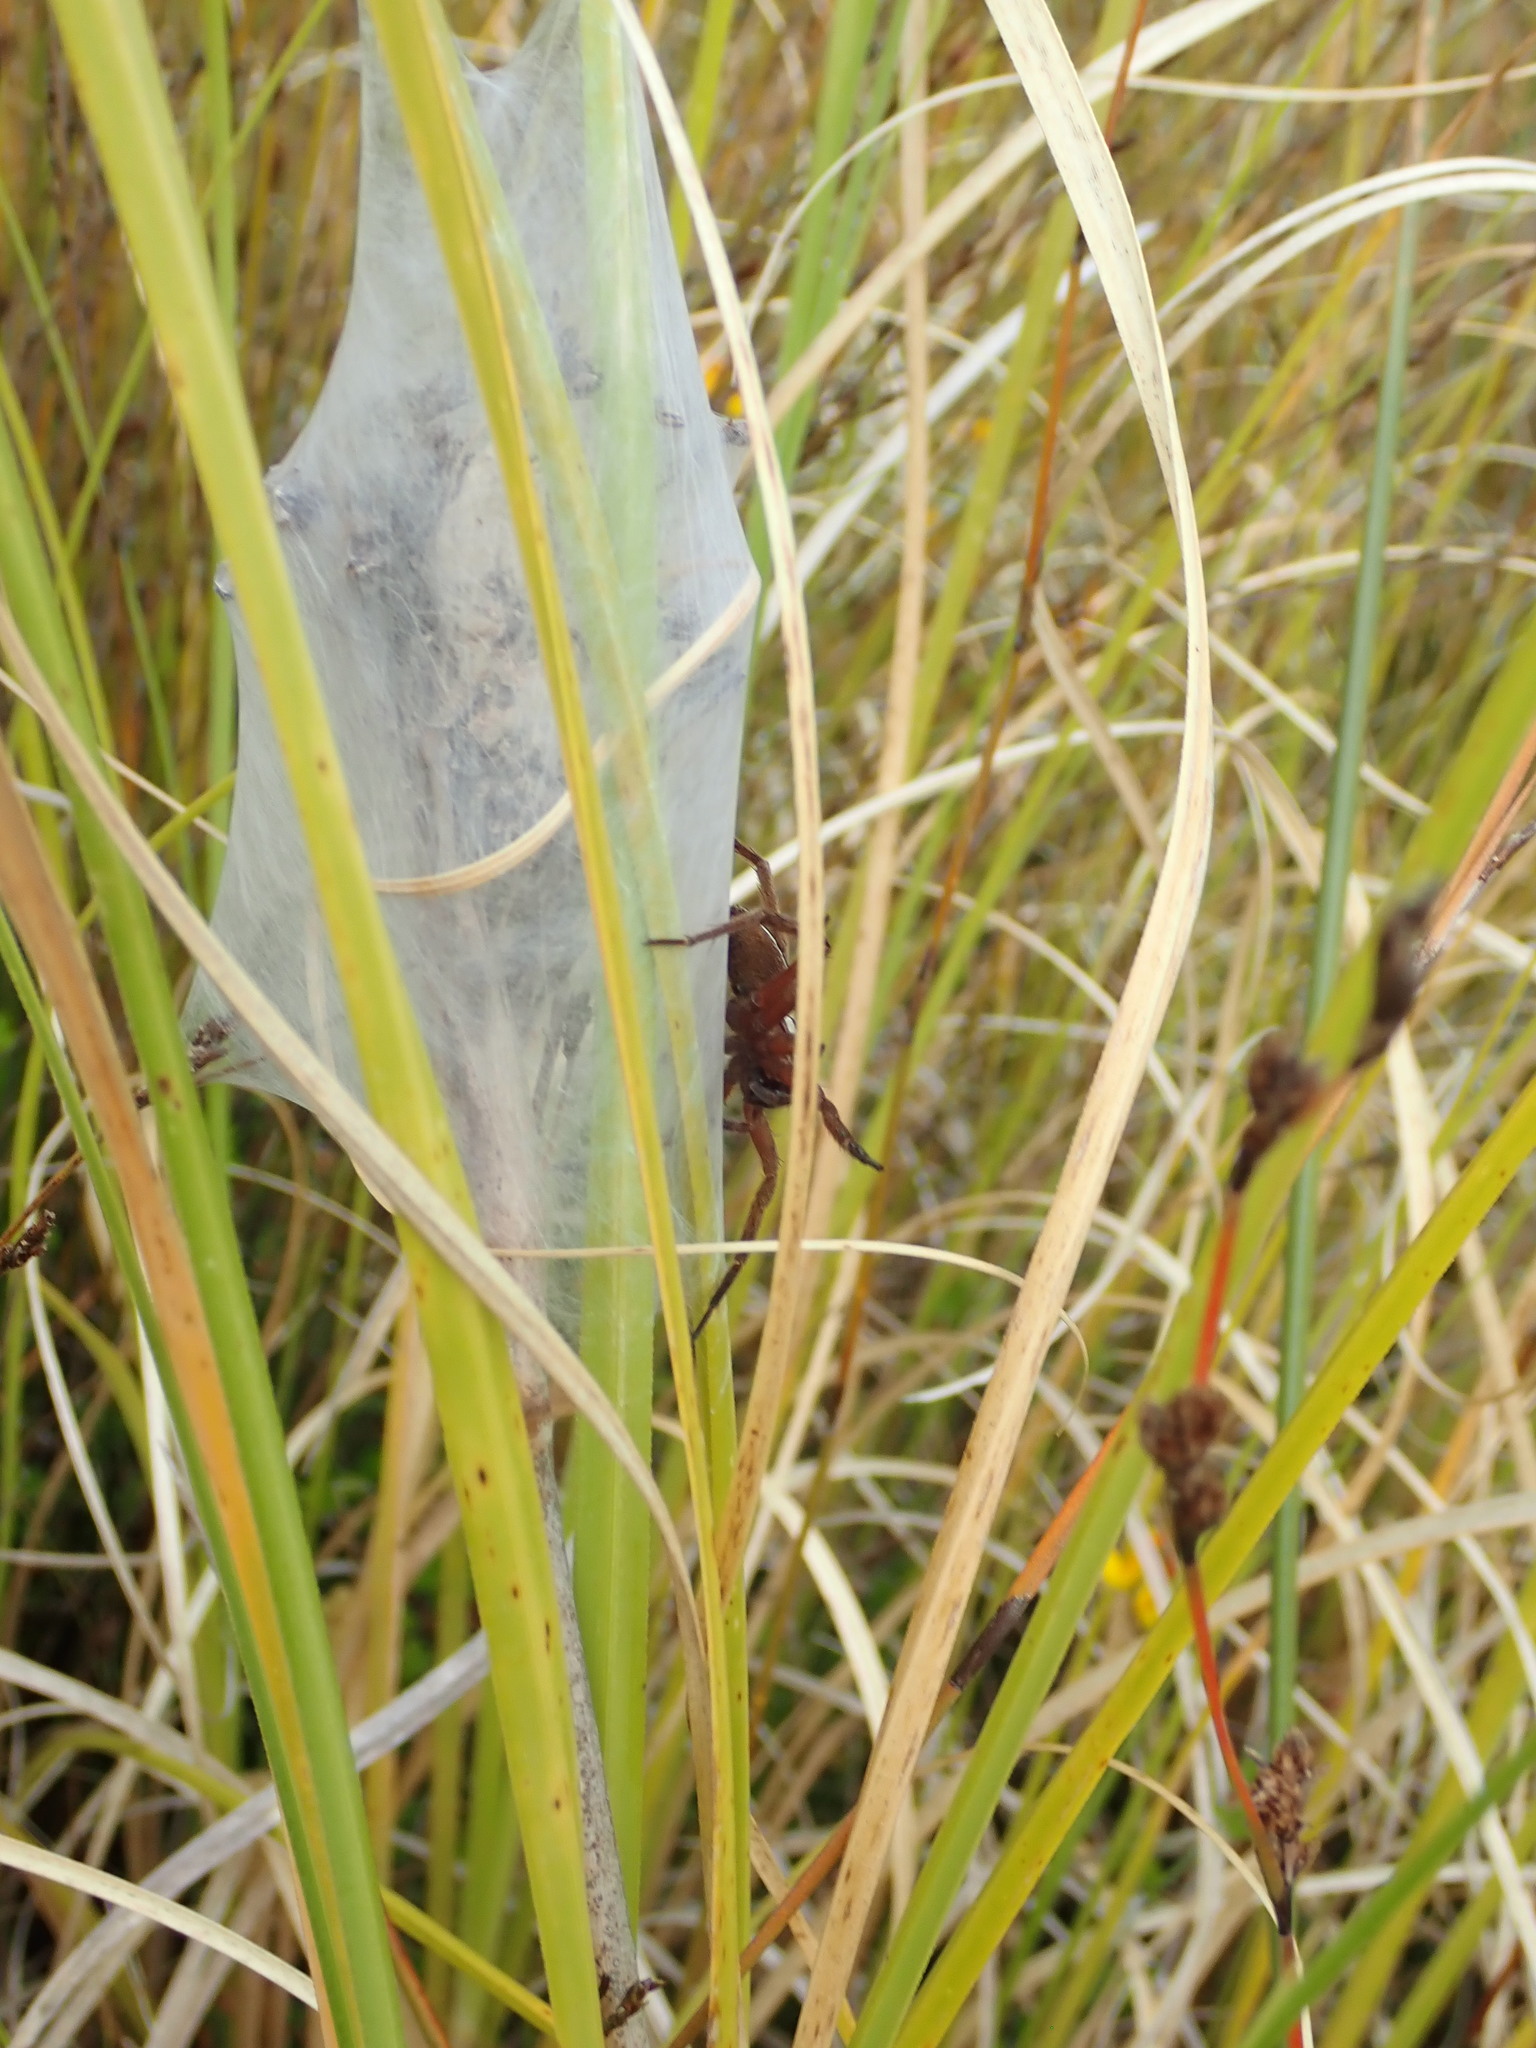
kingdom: Animalia
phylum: Arthropoda
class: Arachnida
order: Araneae
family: Pisauridae
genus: Dolomedes
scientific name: Dolomedes minor
